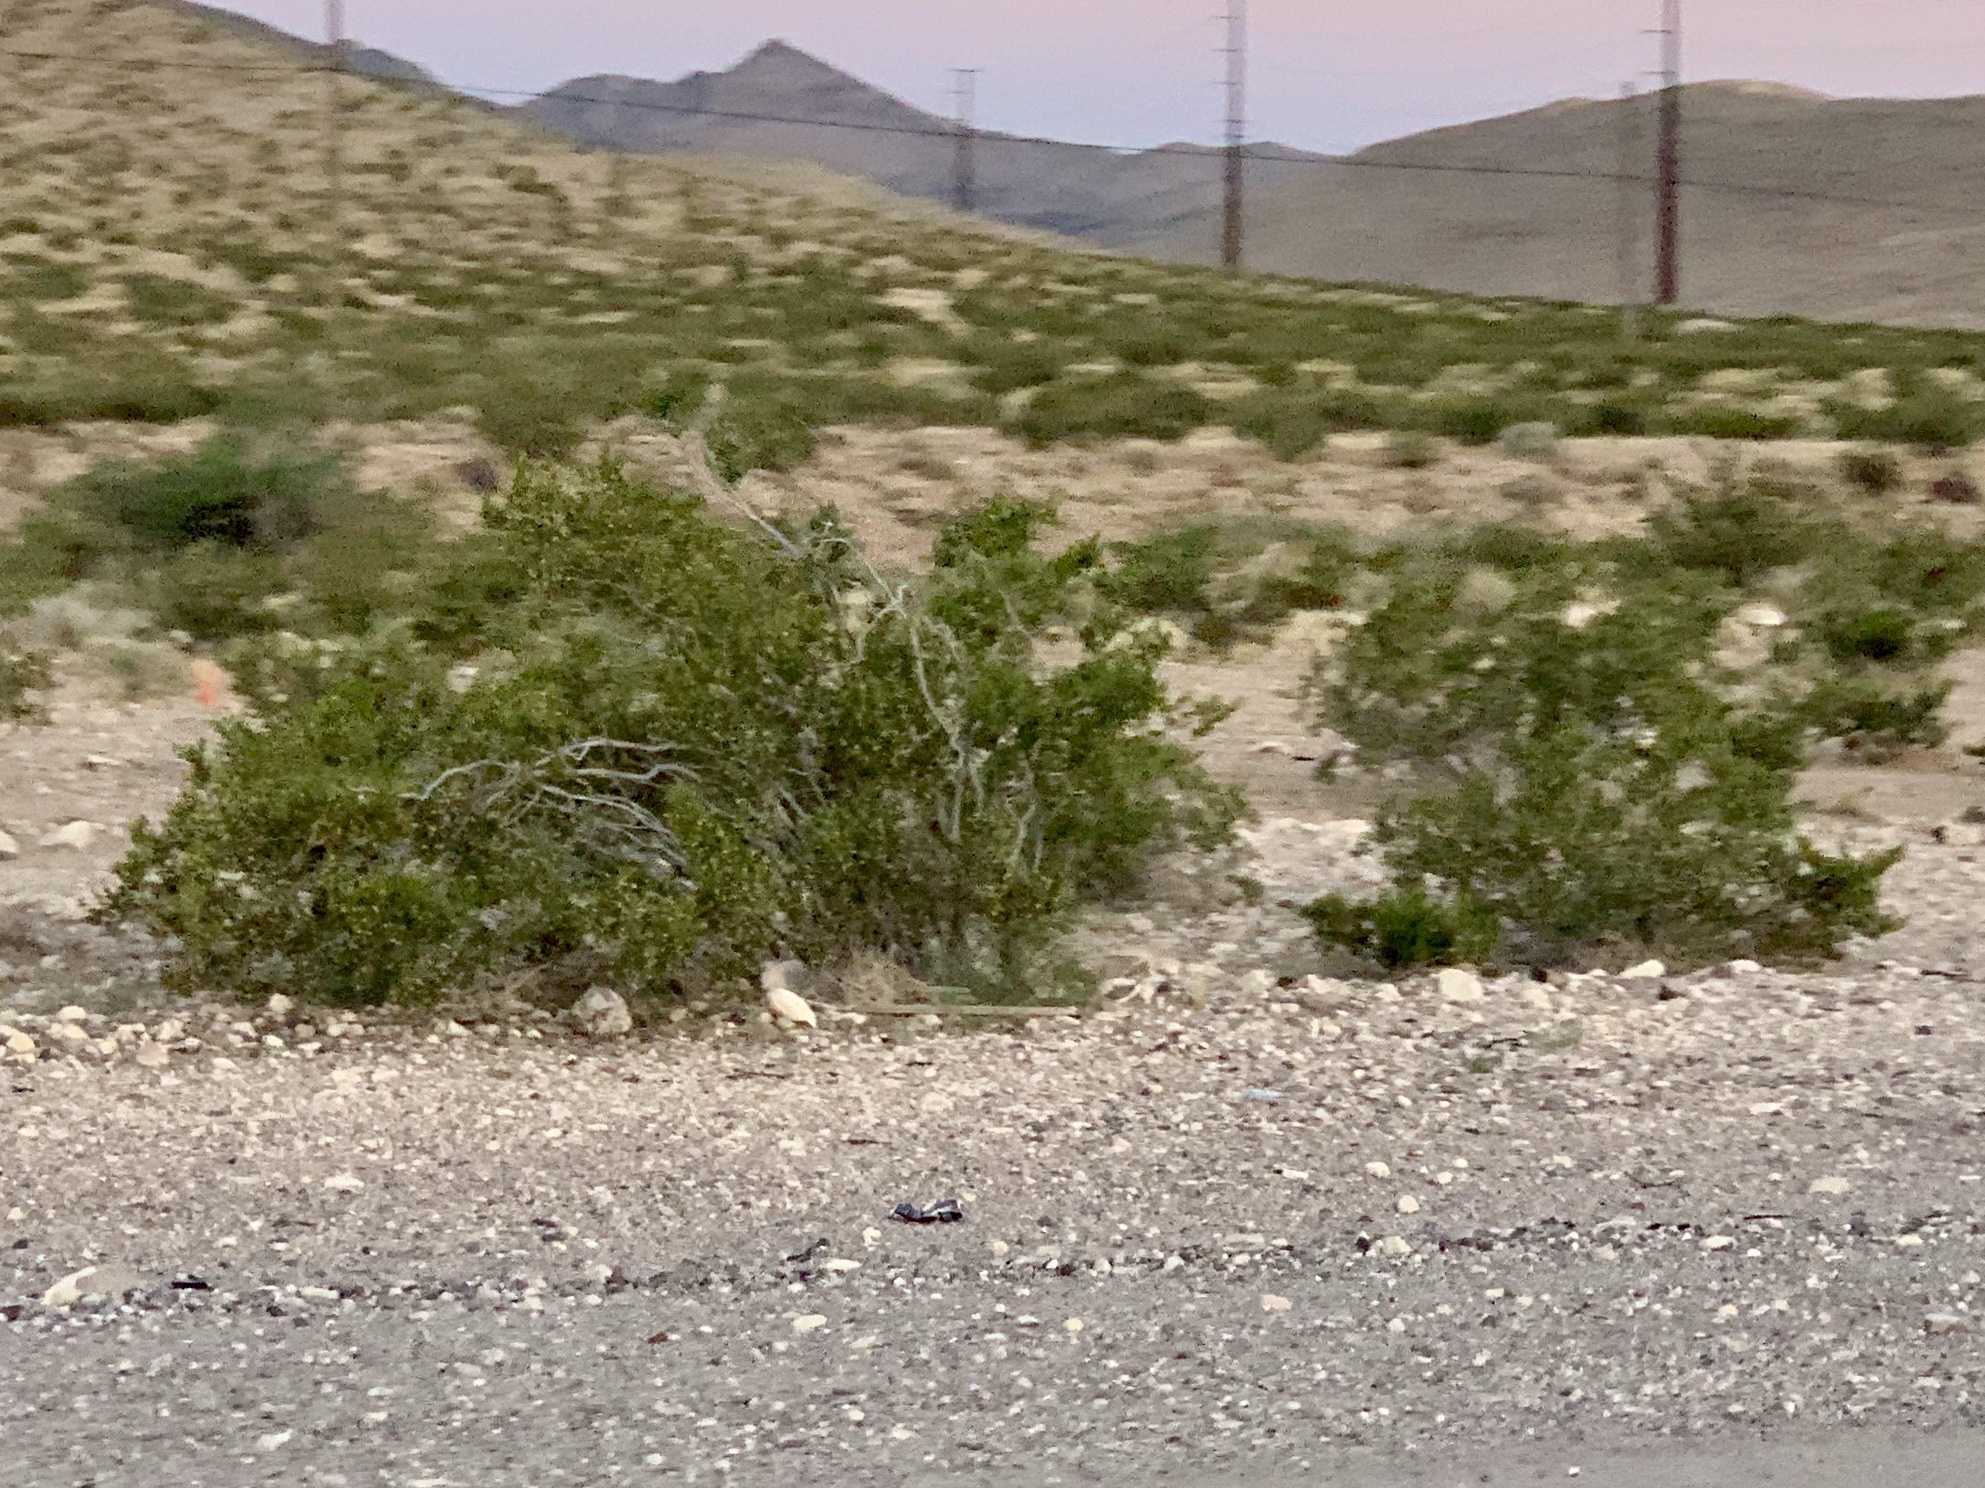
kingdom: Plantae
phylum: Tracheophyta
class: Magnoliopsida
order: Zygophyllales
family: Zygophyllaceae
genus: Larrea
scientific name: Larrea tridentata
